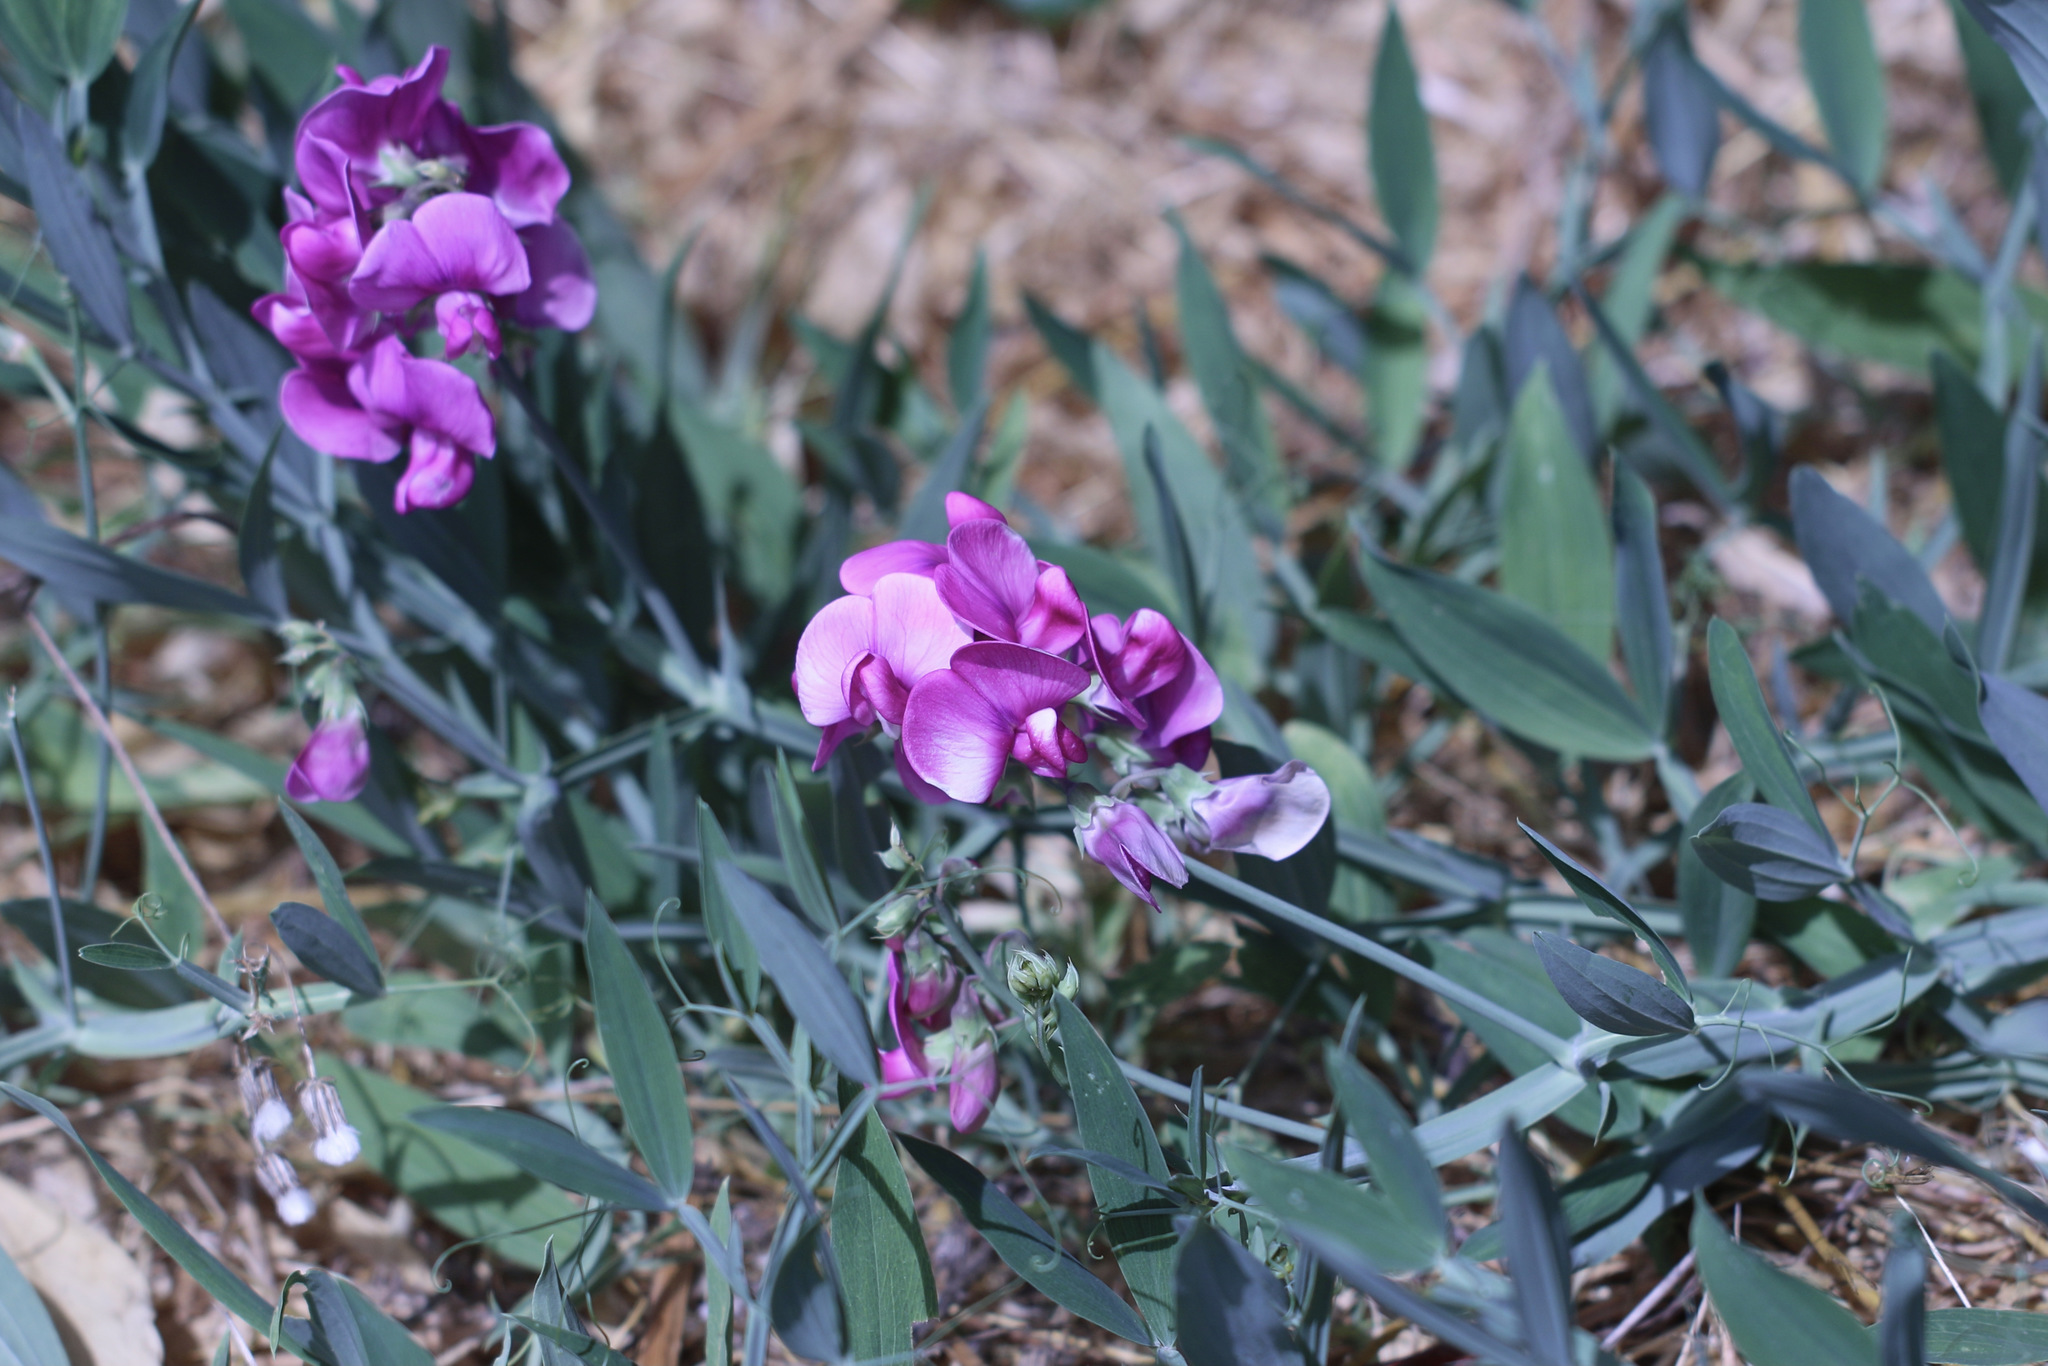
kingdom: Plantae
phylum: Tracheophyta
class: Magnoliopsida
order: Fabales
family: Fabaceae
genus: Lathyrus
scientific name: Lathyrus latifolius
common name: Perennial pea
